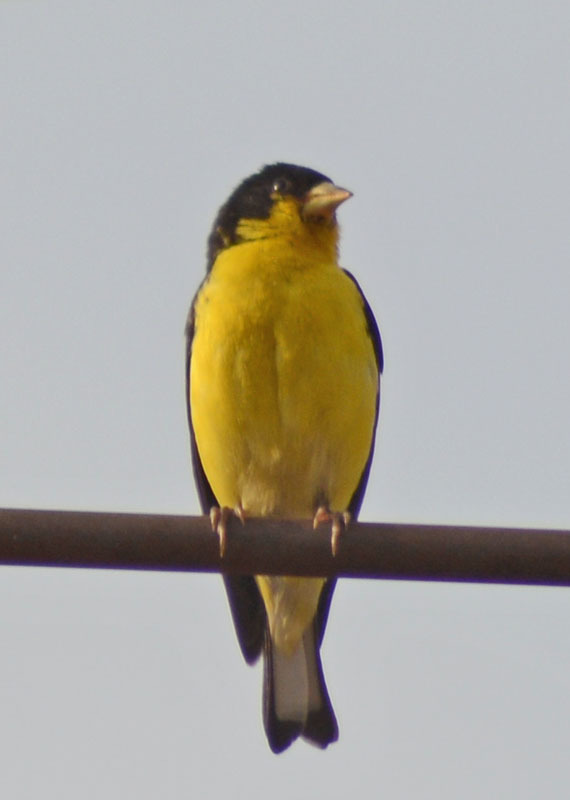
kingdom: Animalia
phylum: Chordata
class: Aves
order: Passeriformes
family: Fringillidae
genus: Spinus
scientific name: Spinus psaltria
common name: Lesser goldfinch
